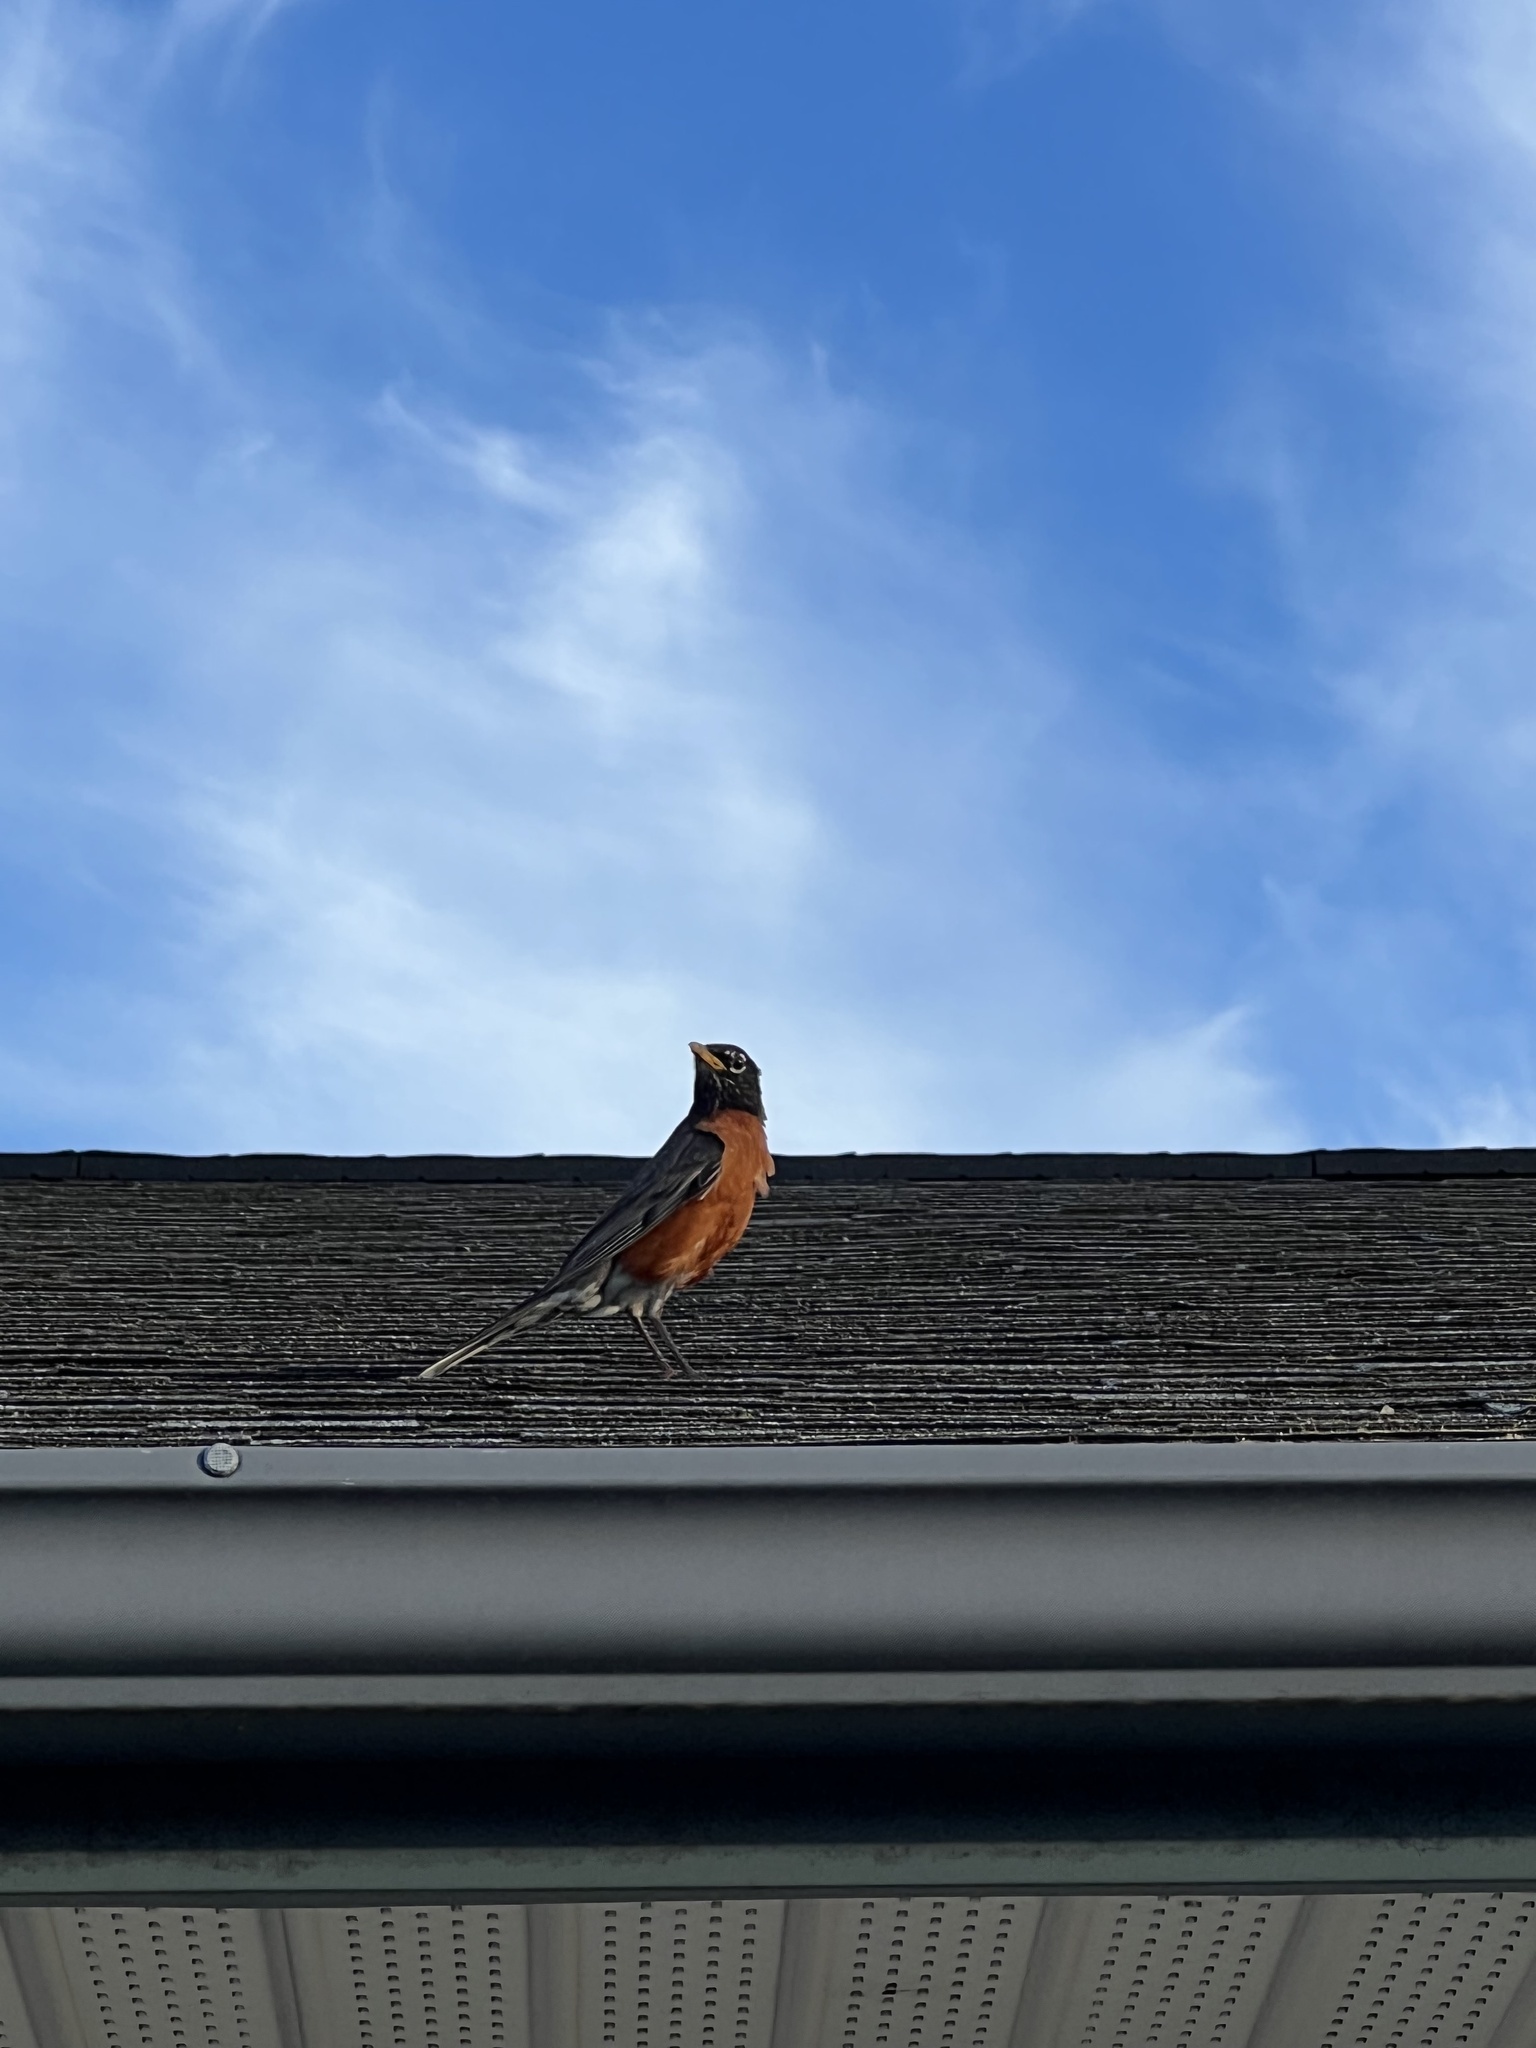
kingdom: Animalia
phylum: Chordata
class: Aves
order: Passeriformes
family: Turdidae
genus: Turdus
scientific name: Turdus migratorius
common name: American robin
